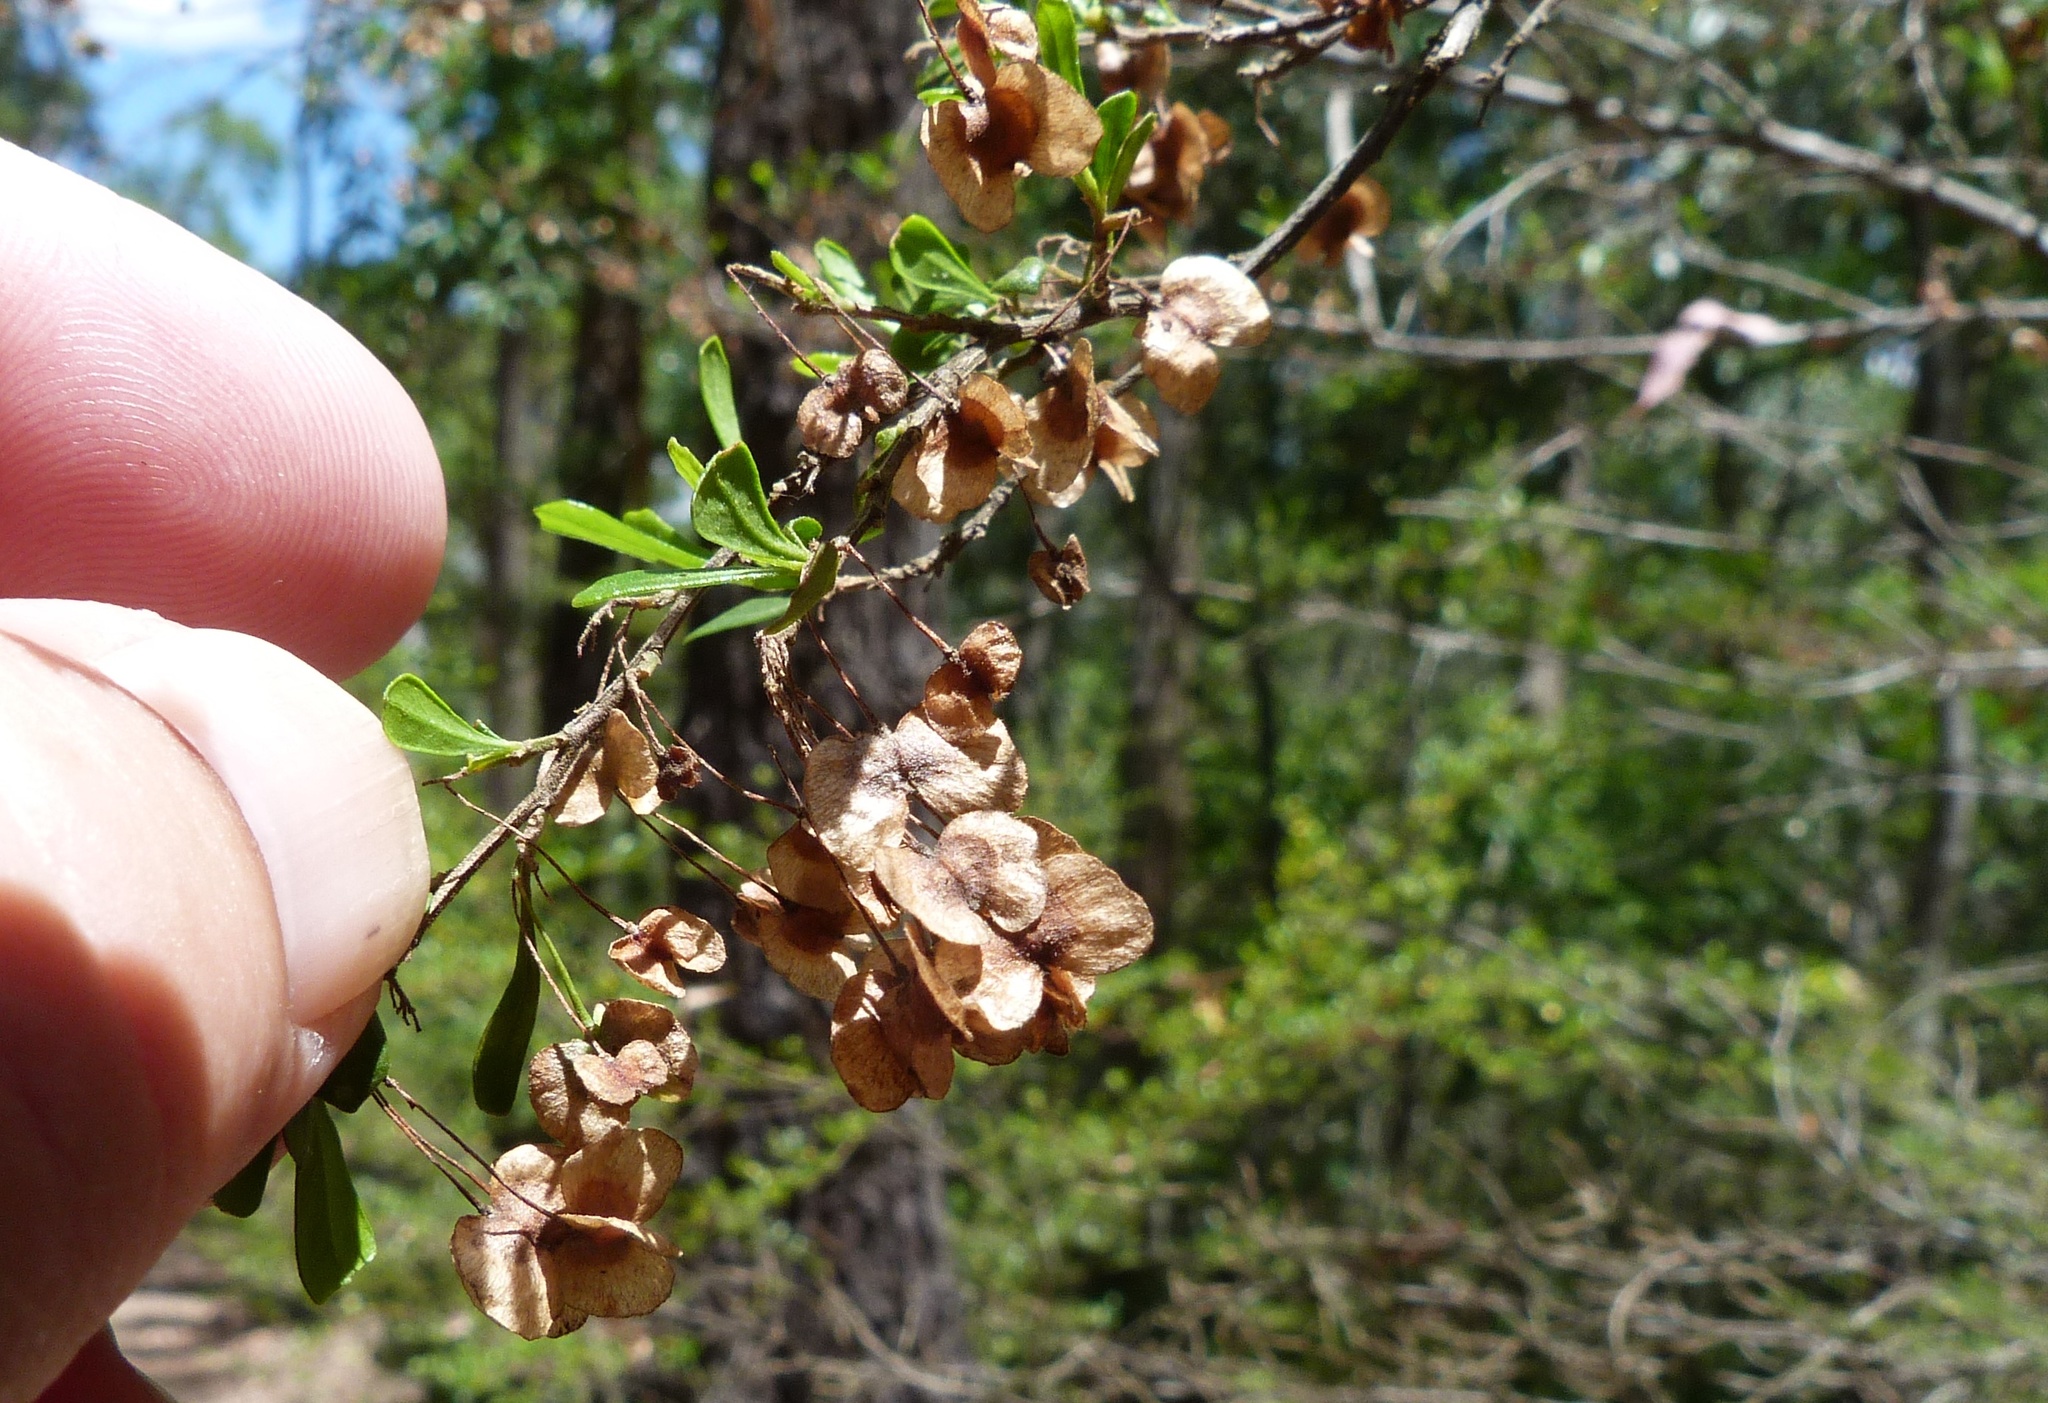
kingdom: Plantae
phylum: Tracheophyta
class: Magnoliopsida
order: Sapindales
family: Sapindaceae
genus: Dodonaea
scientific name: Dodonaea viscosa
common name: Hopbush
